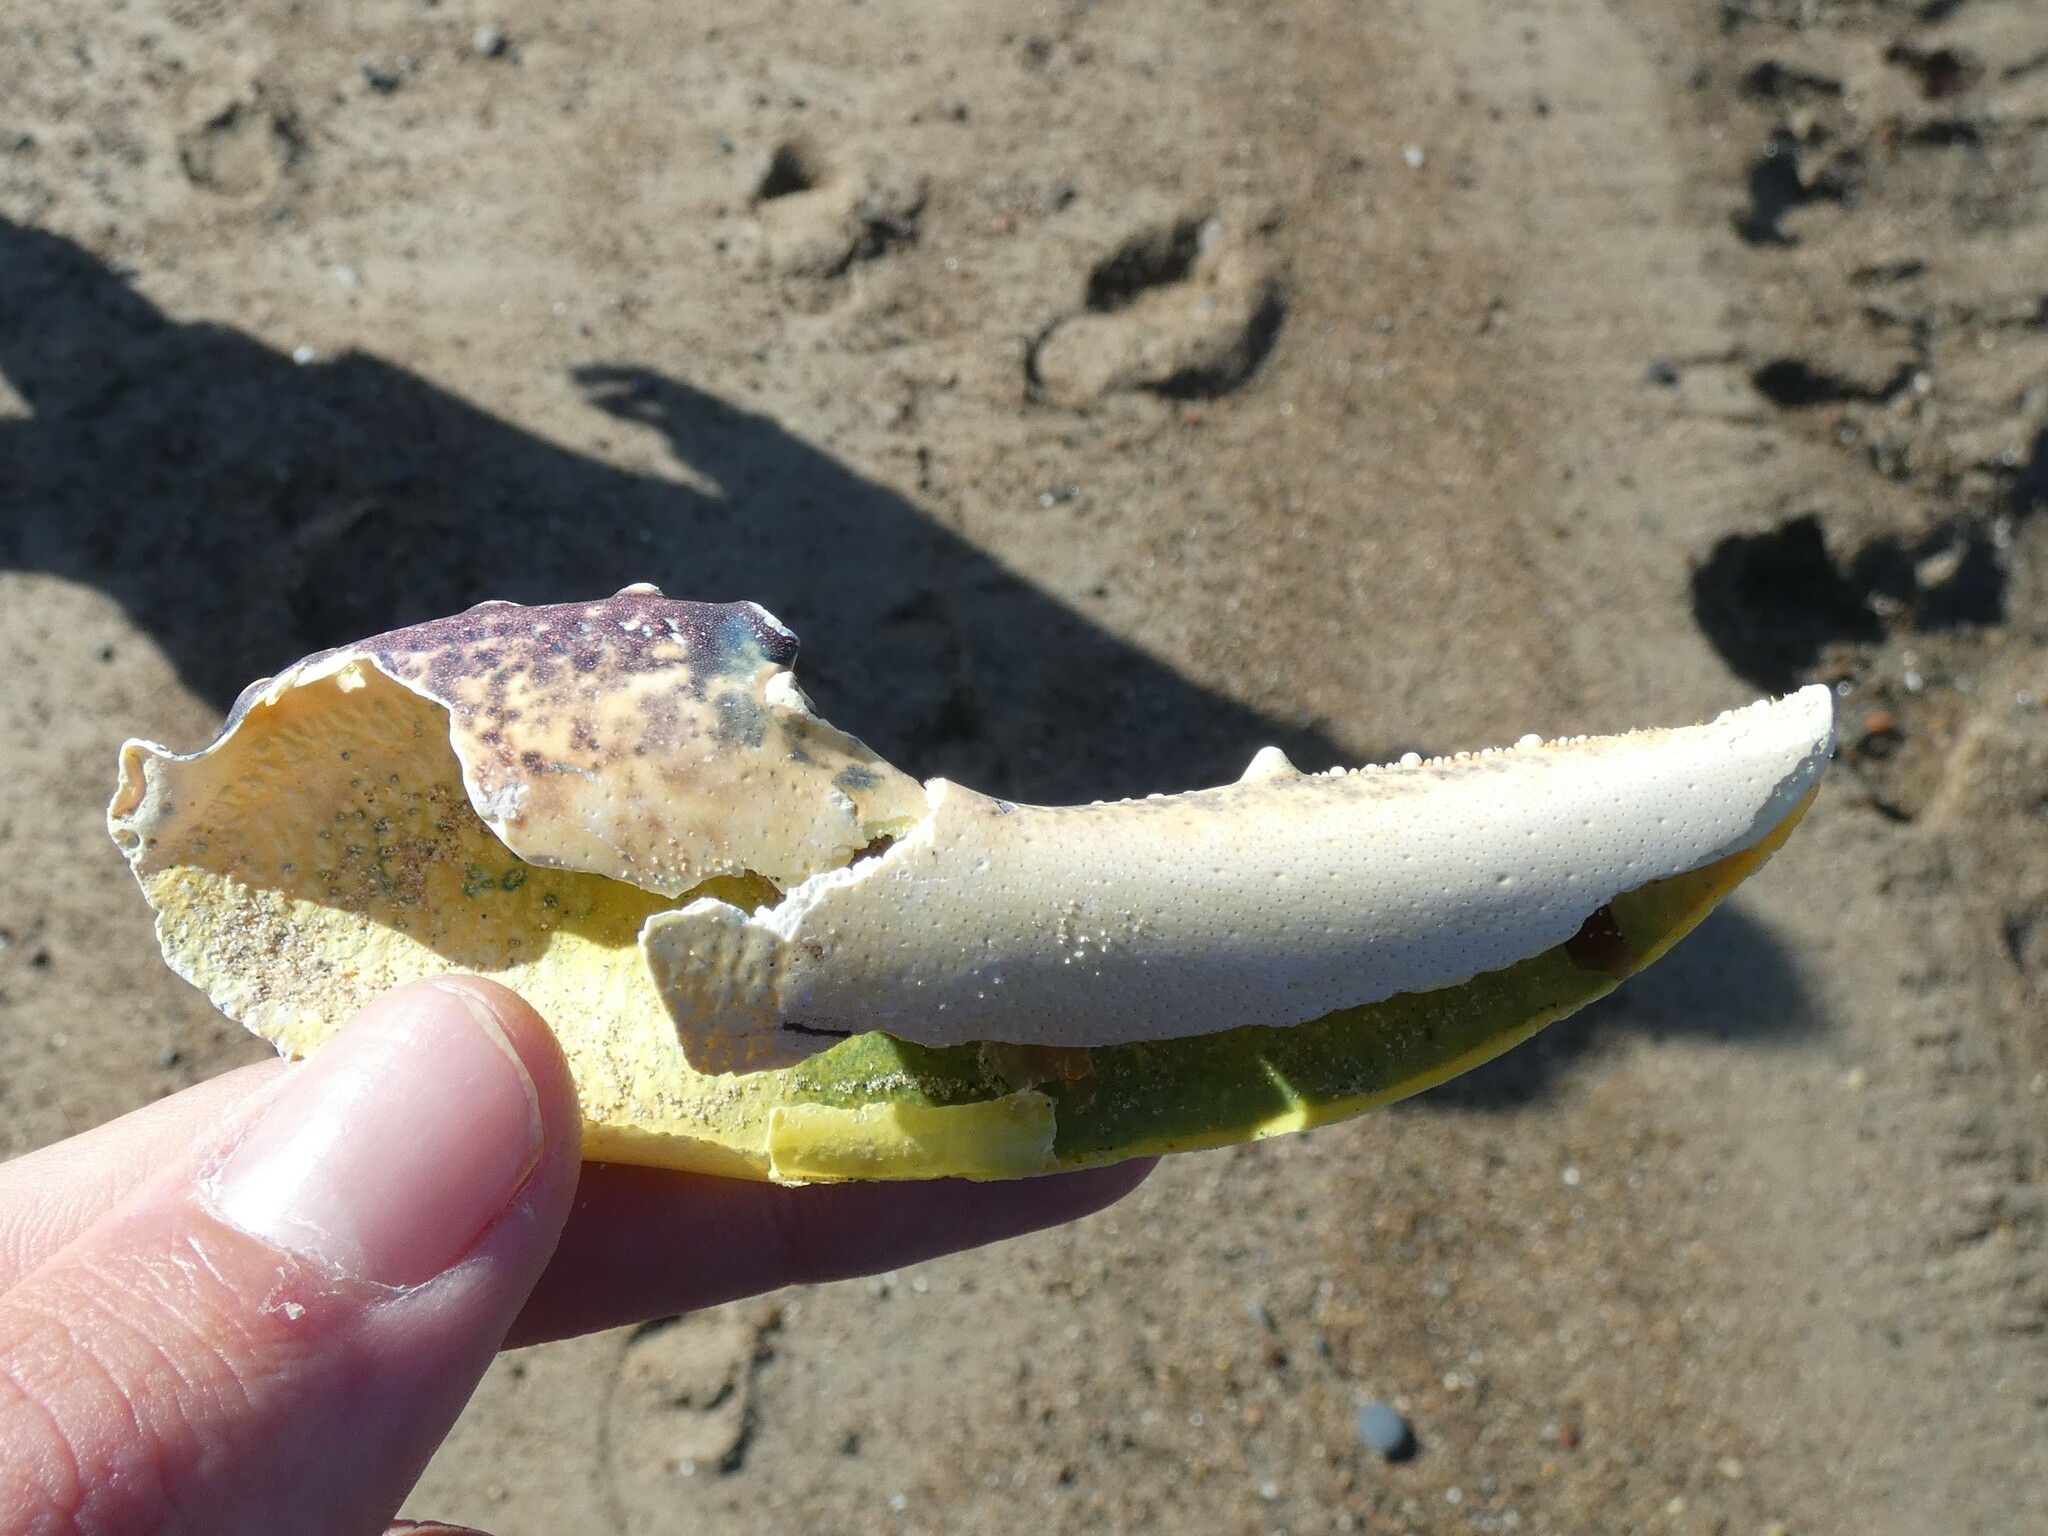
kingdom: Animalia
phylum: Arthropoda
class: Malacostraca
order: Decapoda
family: Nephropidae
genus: Homarus
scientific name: Homarus gammarus
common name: European lobster
